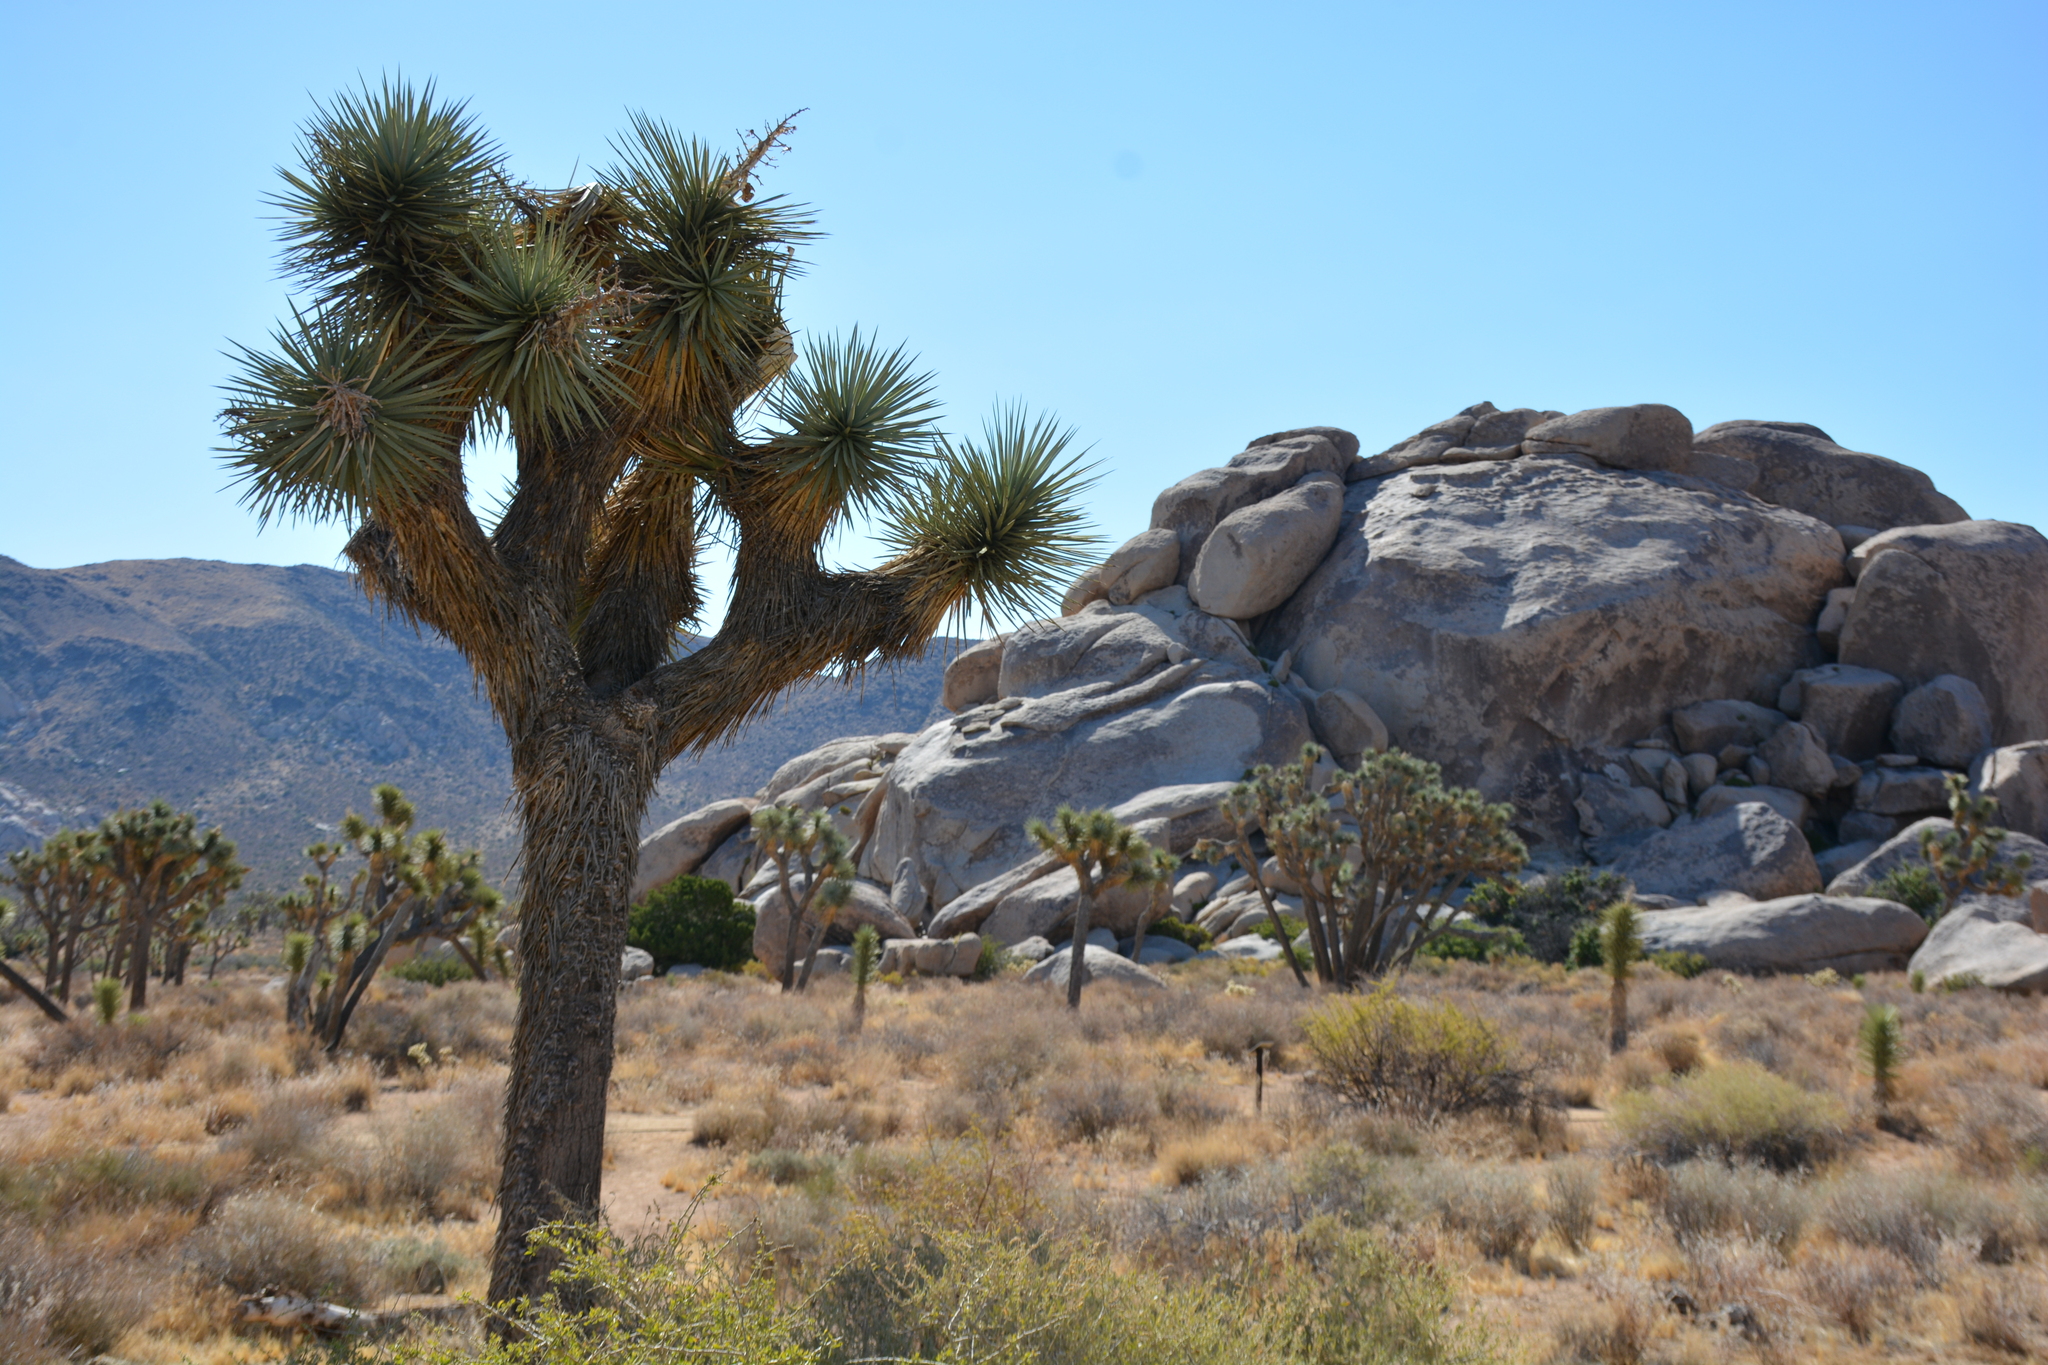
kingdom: Plantae
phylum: Tracheophyta
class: Liliopsida
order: Asparagales
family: Asparagaceae
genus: Yucca
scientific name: Yucca brevifolia
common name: Joshua tree
